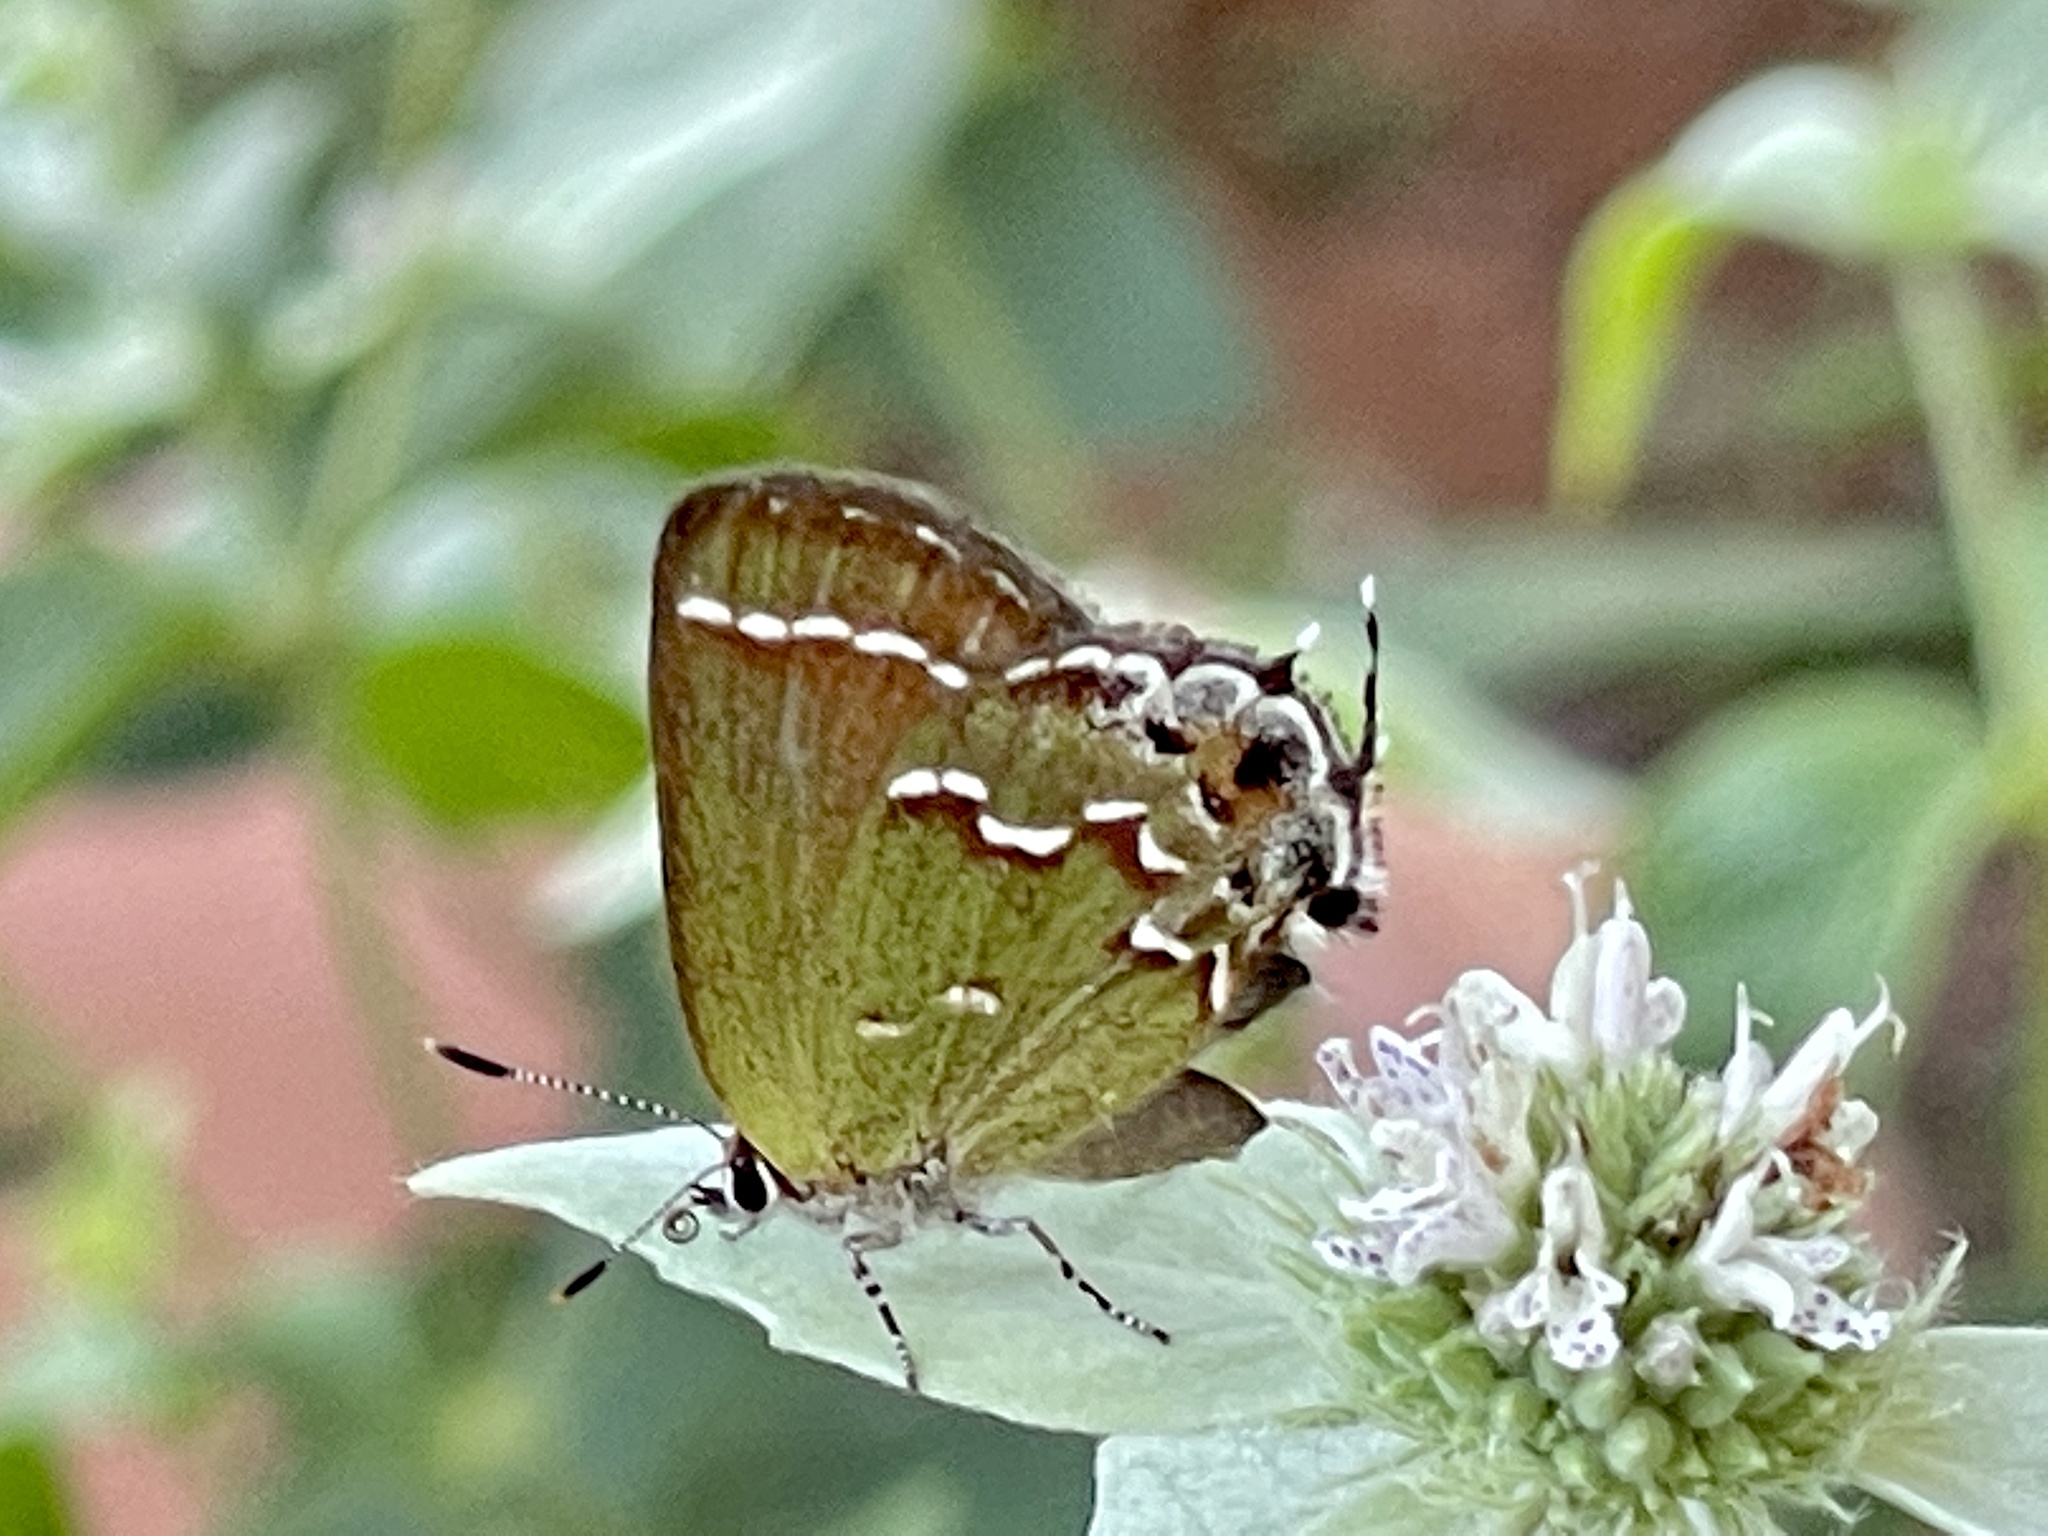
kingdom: Animalia
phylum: Arthropoda
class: Insecta
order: Lepidoptera
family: Lycaenidae
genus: Mitoura
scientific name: Mitoura gryneus
